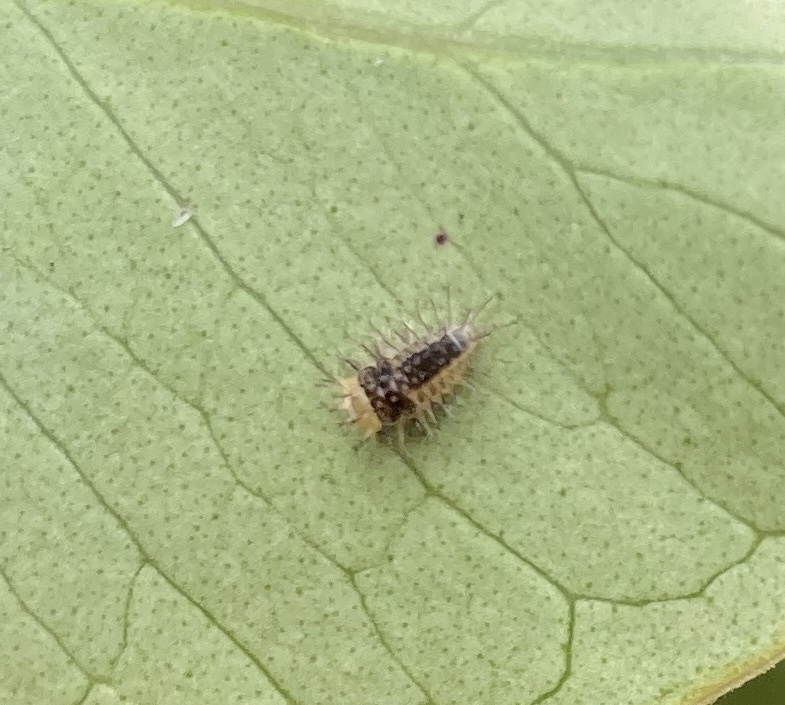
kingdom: Animalia
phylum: Arthropoda
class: Insecta
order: Coleoptera
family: Coccinellidae
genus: Halmus
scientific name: Halmus chalybeus
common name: Steel blue ladybird beetle
